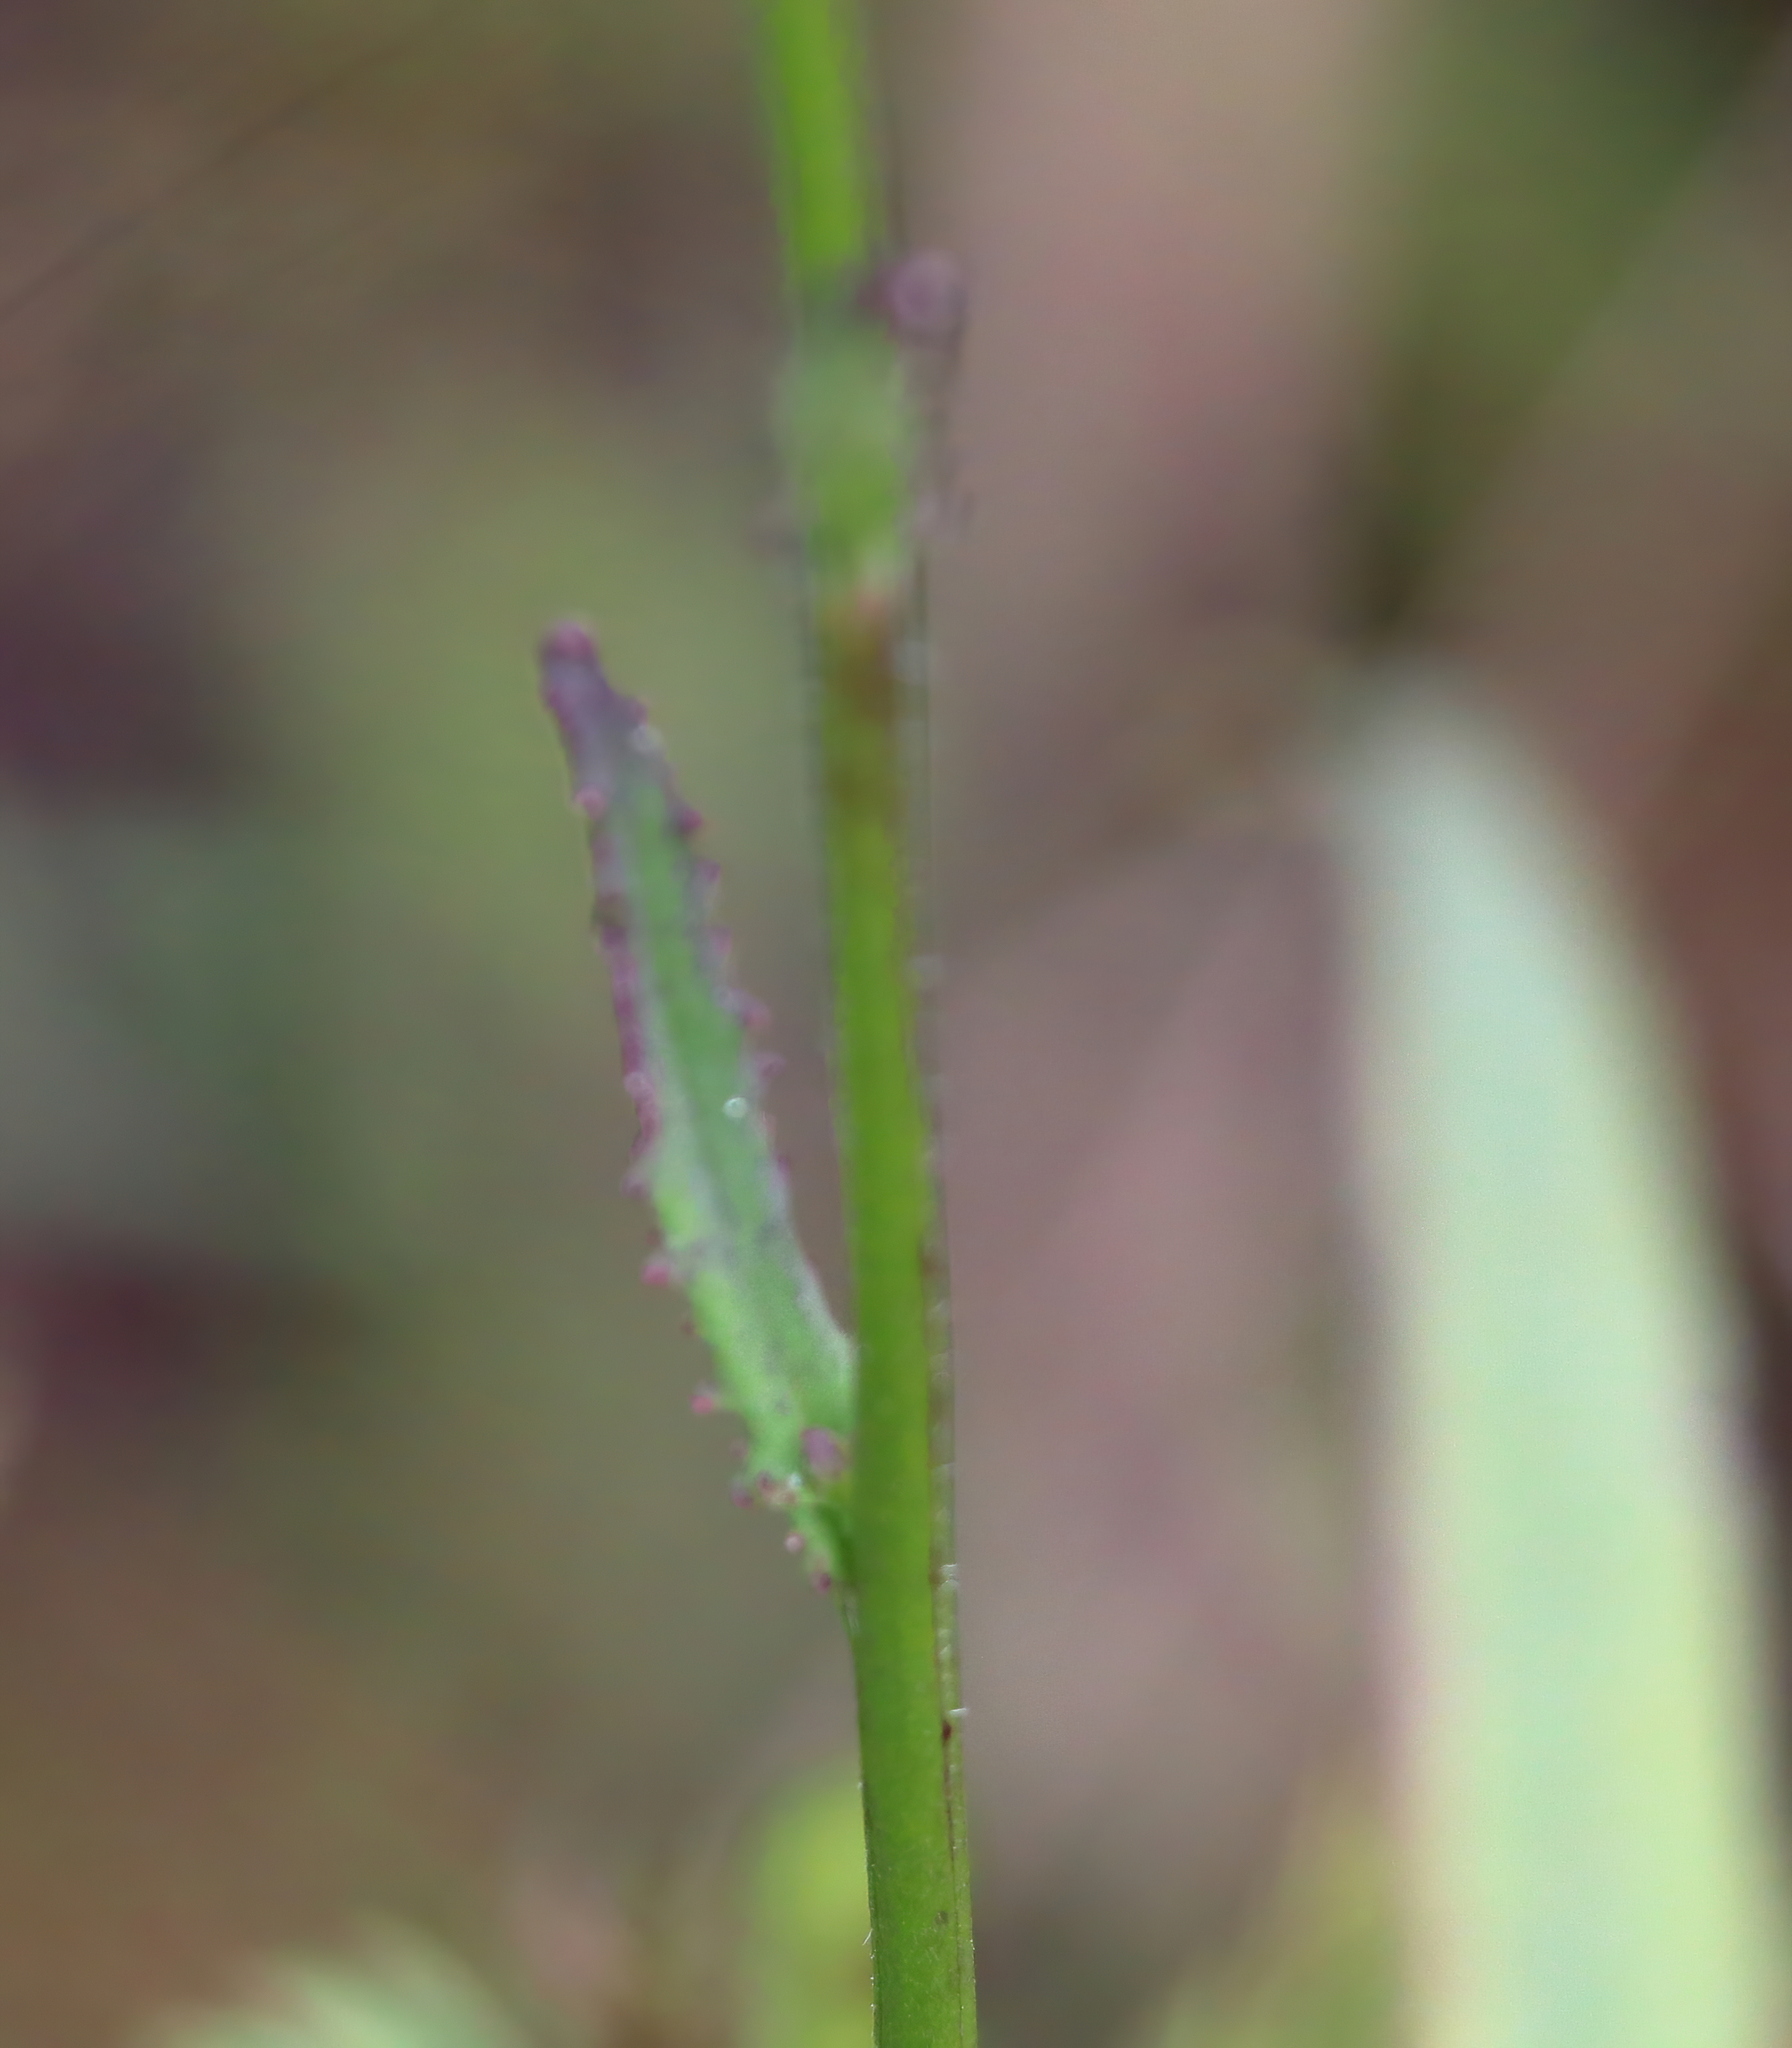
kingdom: Plantae
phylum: Tracheophyta
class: Magnoliopsida
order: Asterales
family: Campanulaceae
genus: Lobelia
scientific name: Lobelia brevifolia
